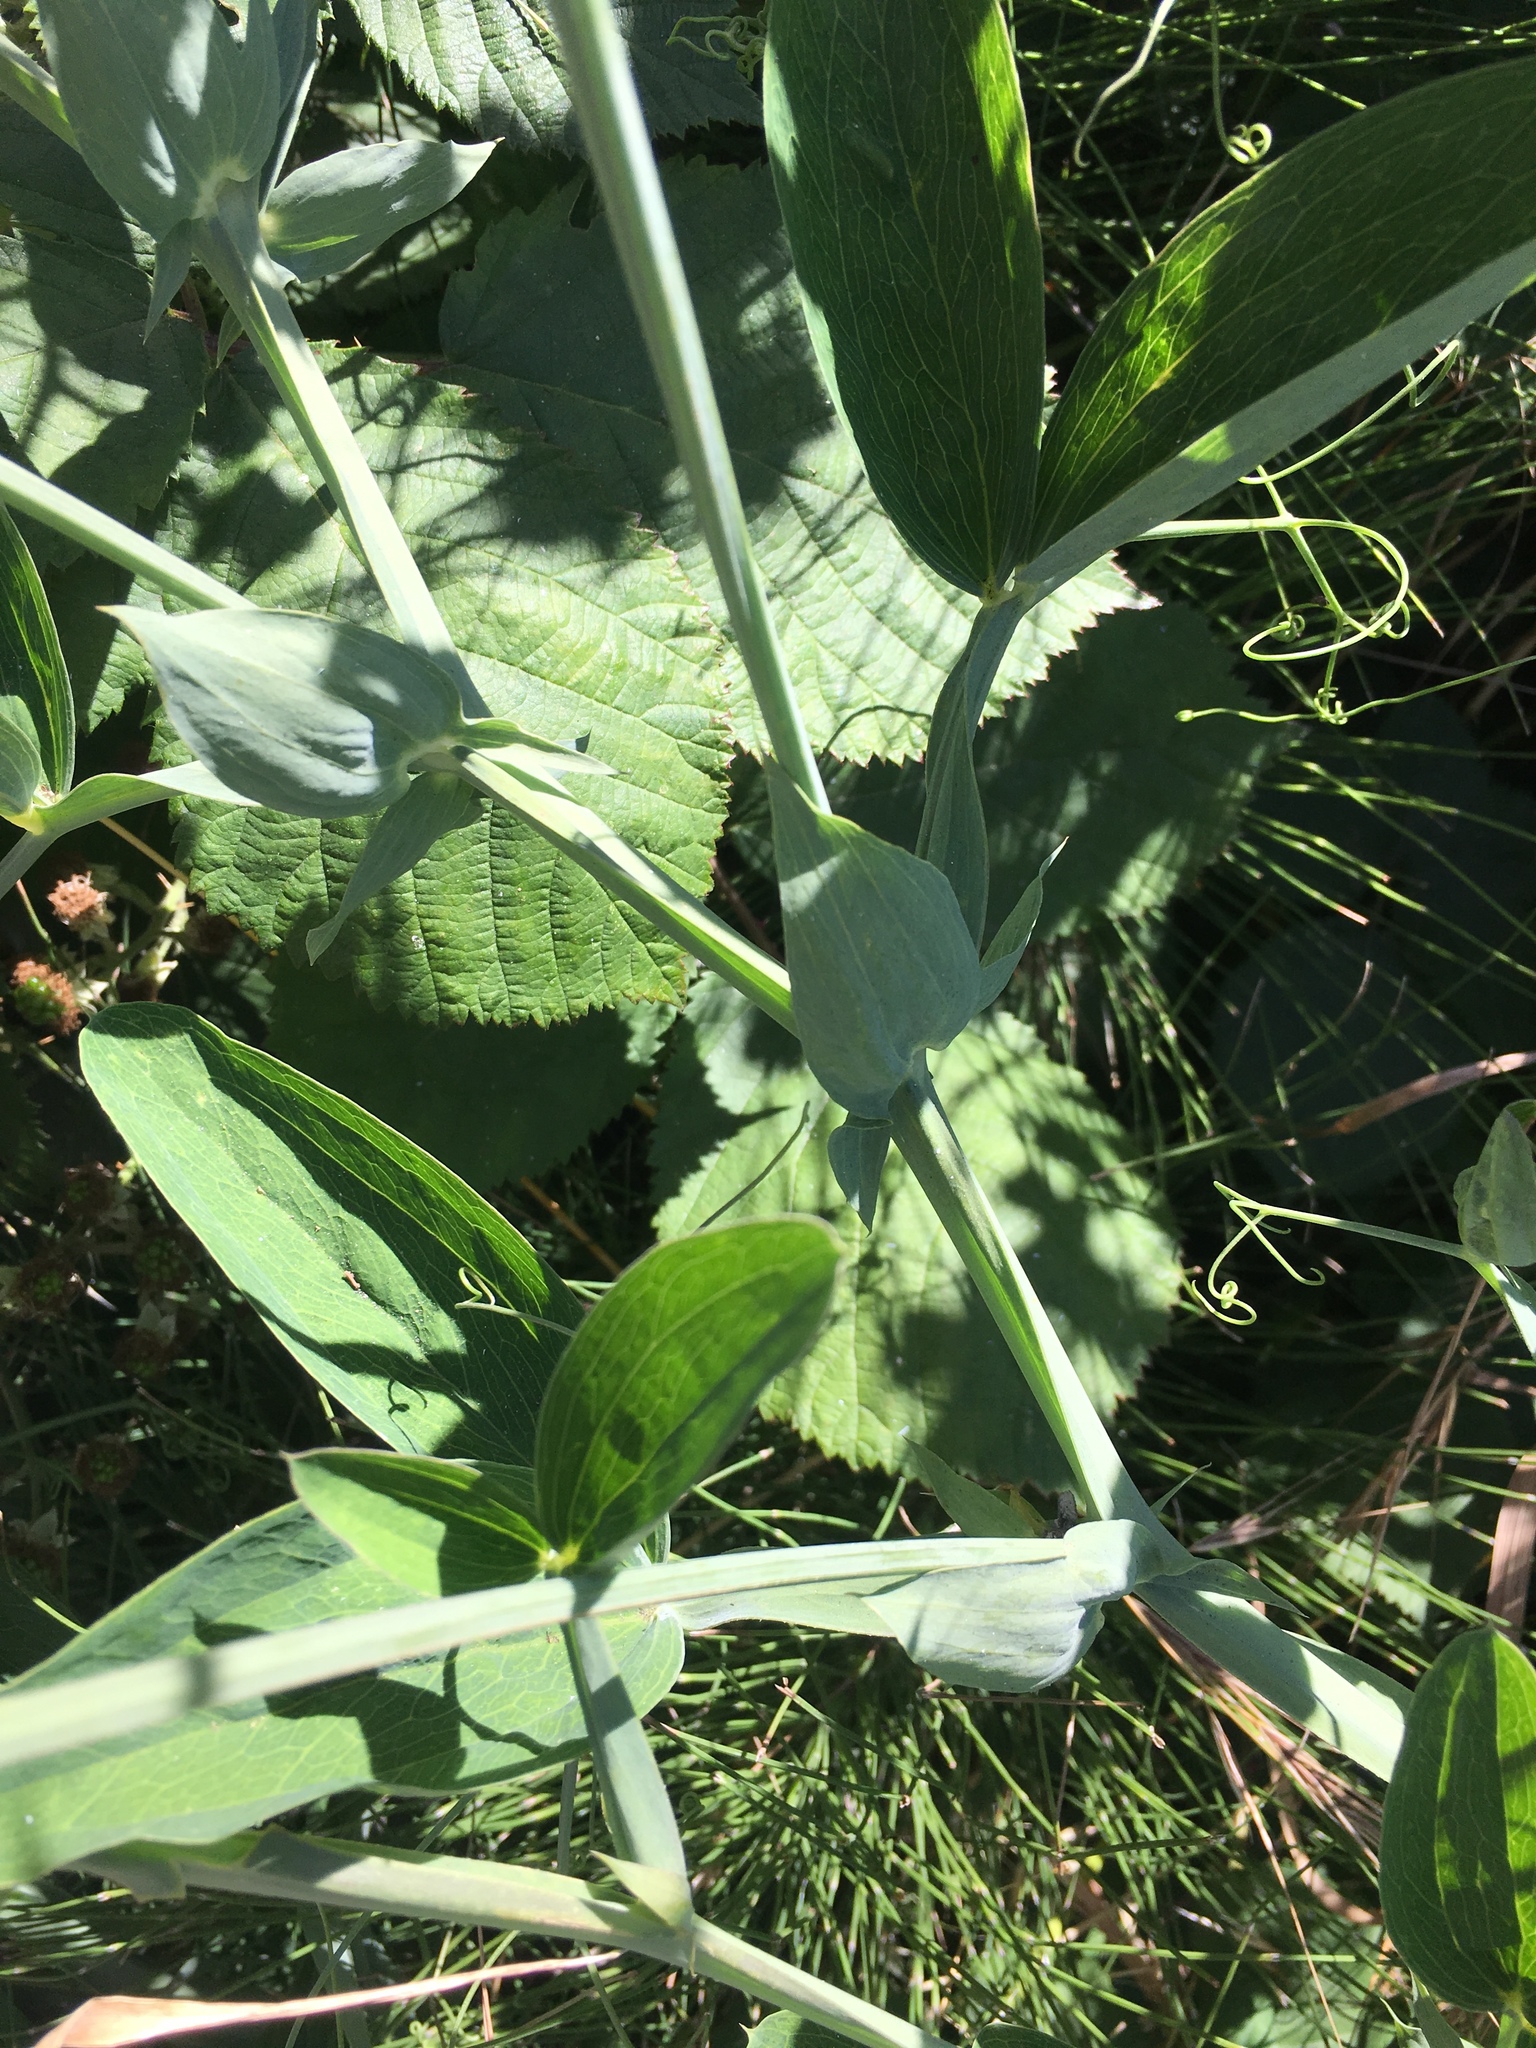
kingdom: Plantae
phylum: Tracheophyta
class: Magnoliopsida
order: Fabales
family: Fabaceae
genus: Lathyrus
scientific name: Lathyrus latifolius
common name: Perennial pea
